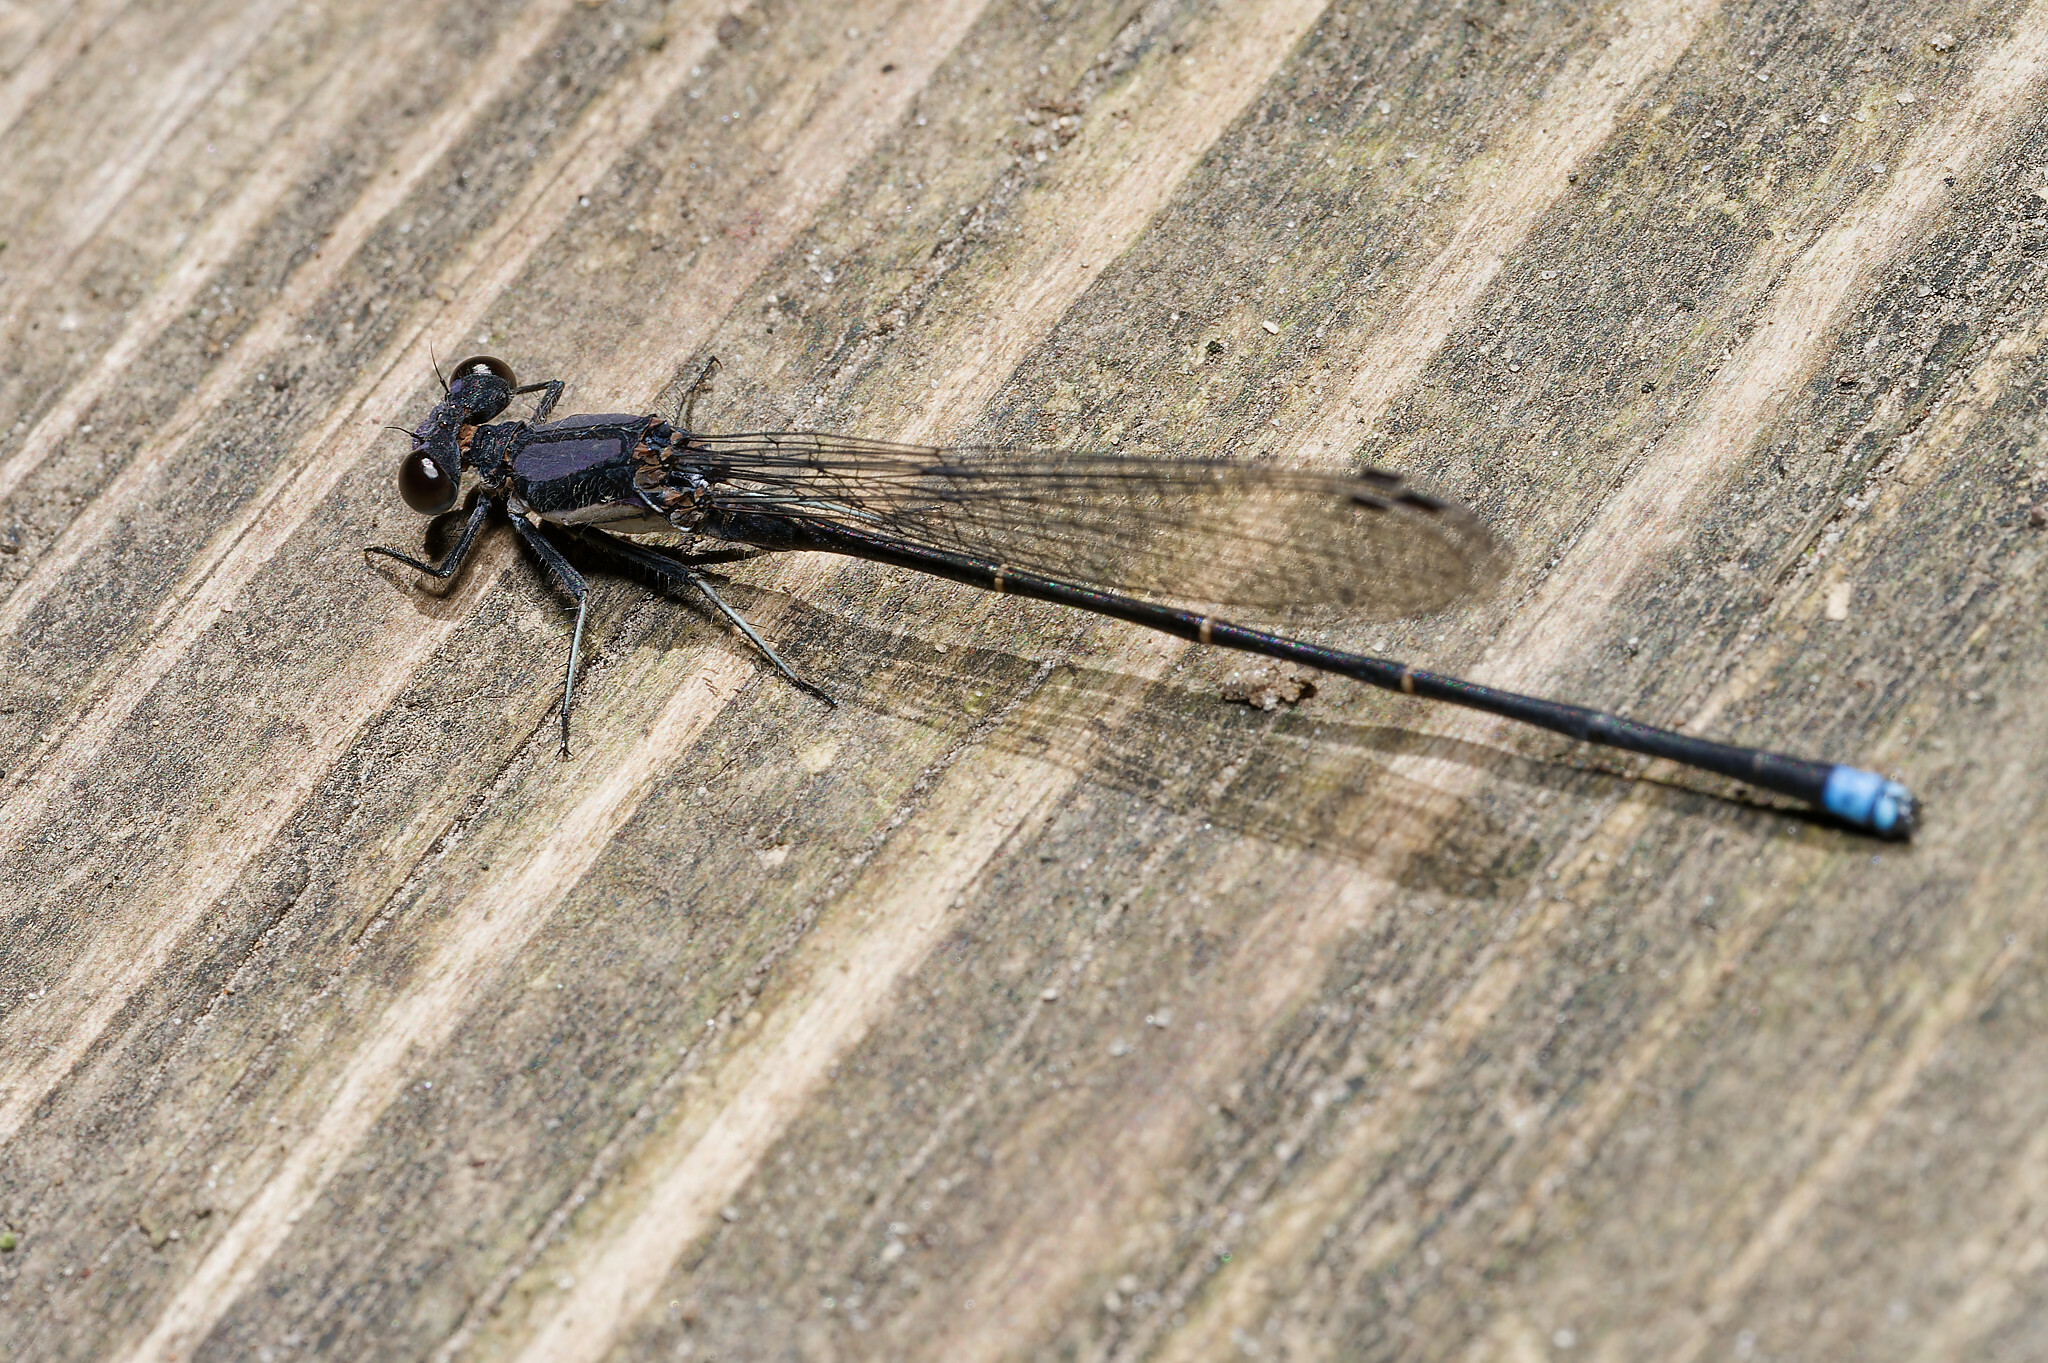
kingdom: Animalia
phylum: Arthropoda
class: Insecta
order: Odonata
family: Coenagrionidae
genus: Argia
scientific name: Argia tibialis
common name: Blue-tipped dancer
